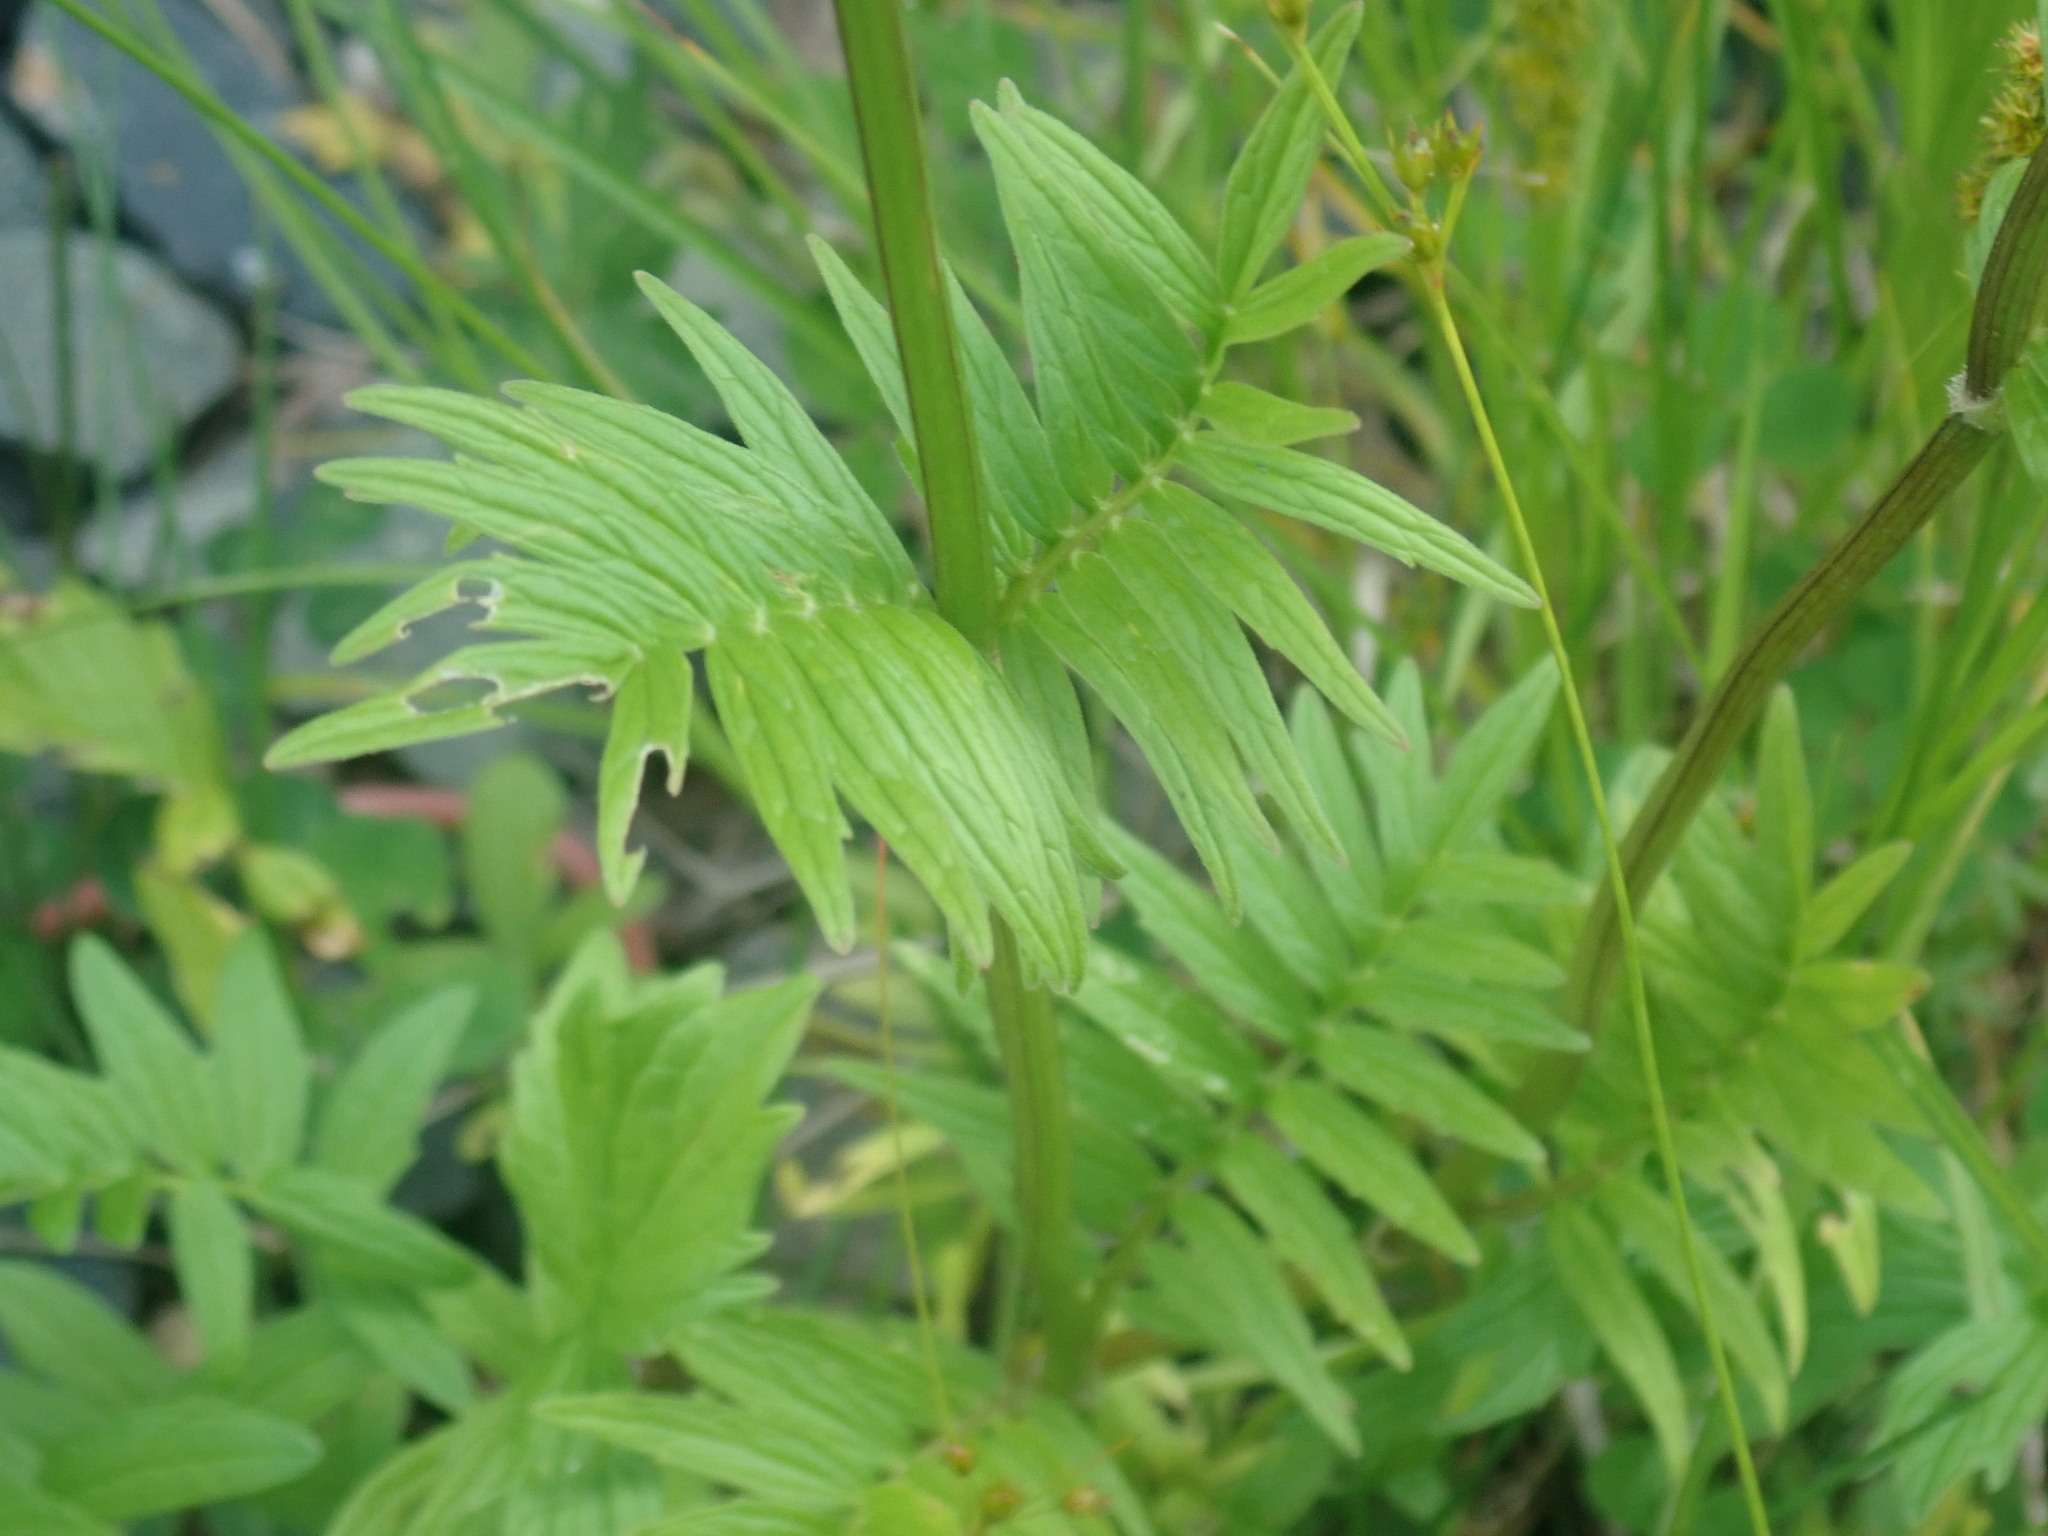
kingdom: Plantae
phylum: Tracheophyta
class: Magnoliopsida
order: Dipsacales
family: Caprifoliaceae
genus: Valeriana
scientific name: Valeriana officinalis
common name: Common valerian
